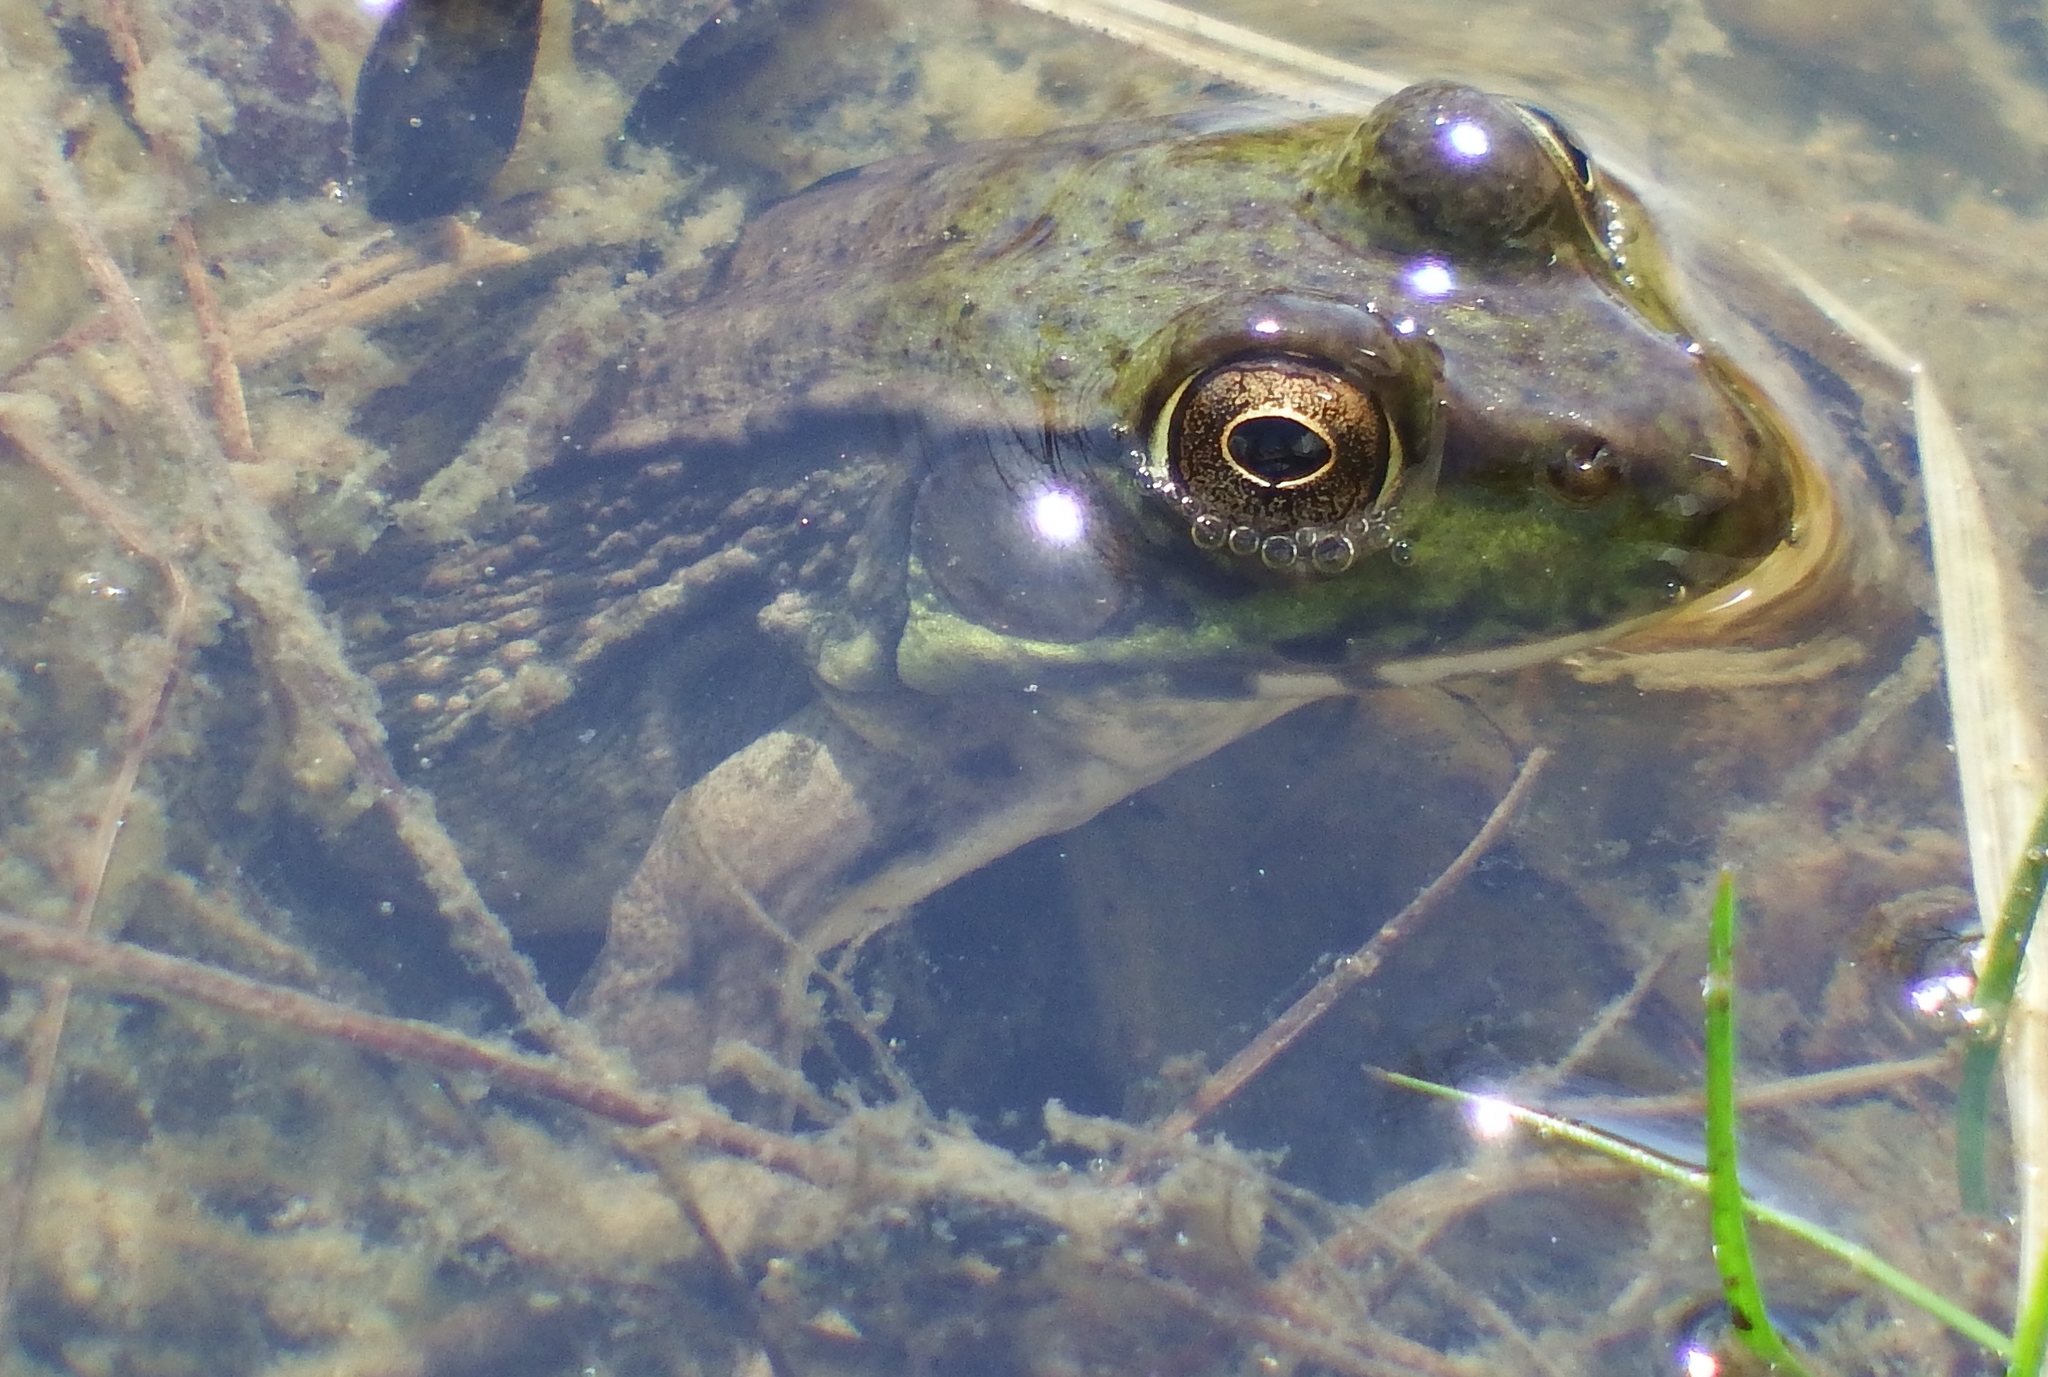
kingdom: Animalia
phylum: Chordata
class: Amphibia
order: Anura
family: Ranidae
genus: Lithobates
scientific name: Lithobates clamitans
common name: Green frog
